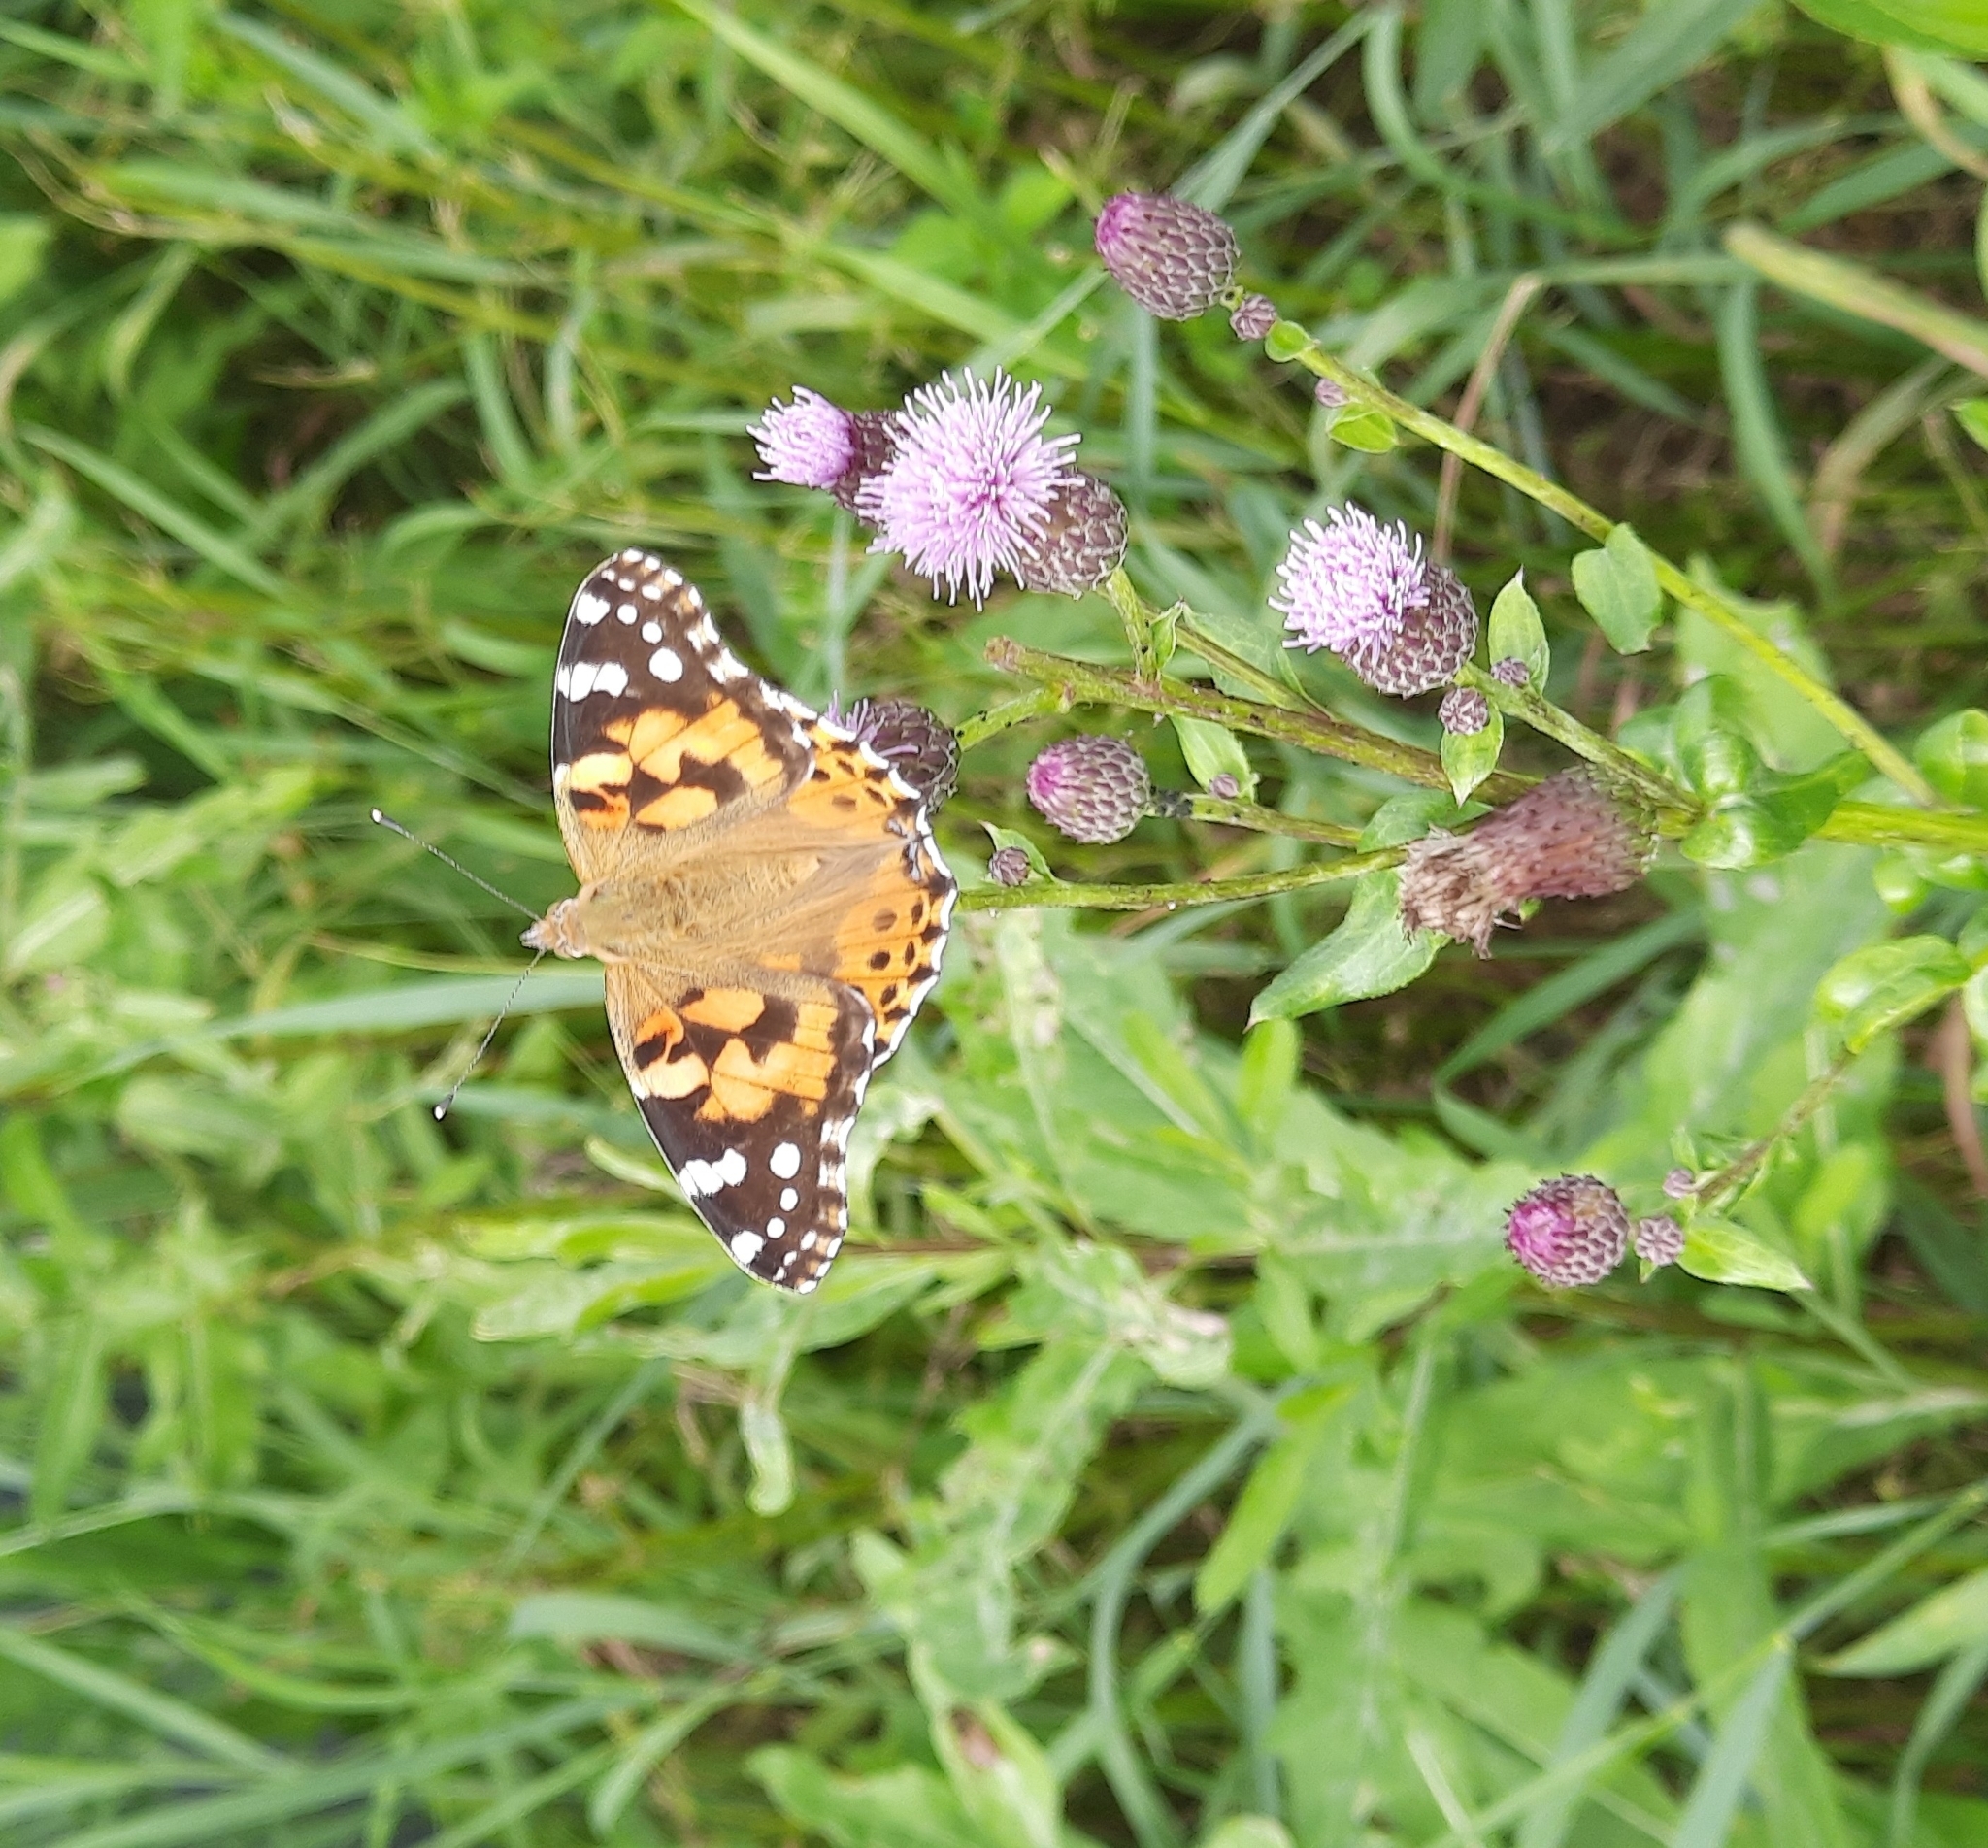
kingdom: Animalia
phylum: Arthropoda
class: Insecta
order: Lepidoptera
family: Nymphalidae
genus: Vanessa
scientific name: Vanessa cardui
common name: Painted lady
